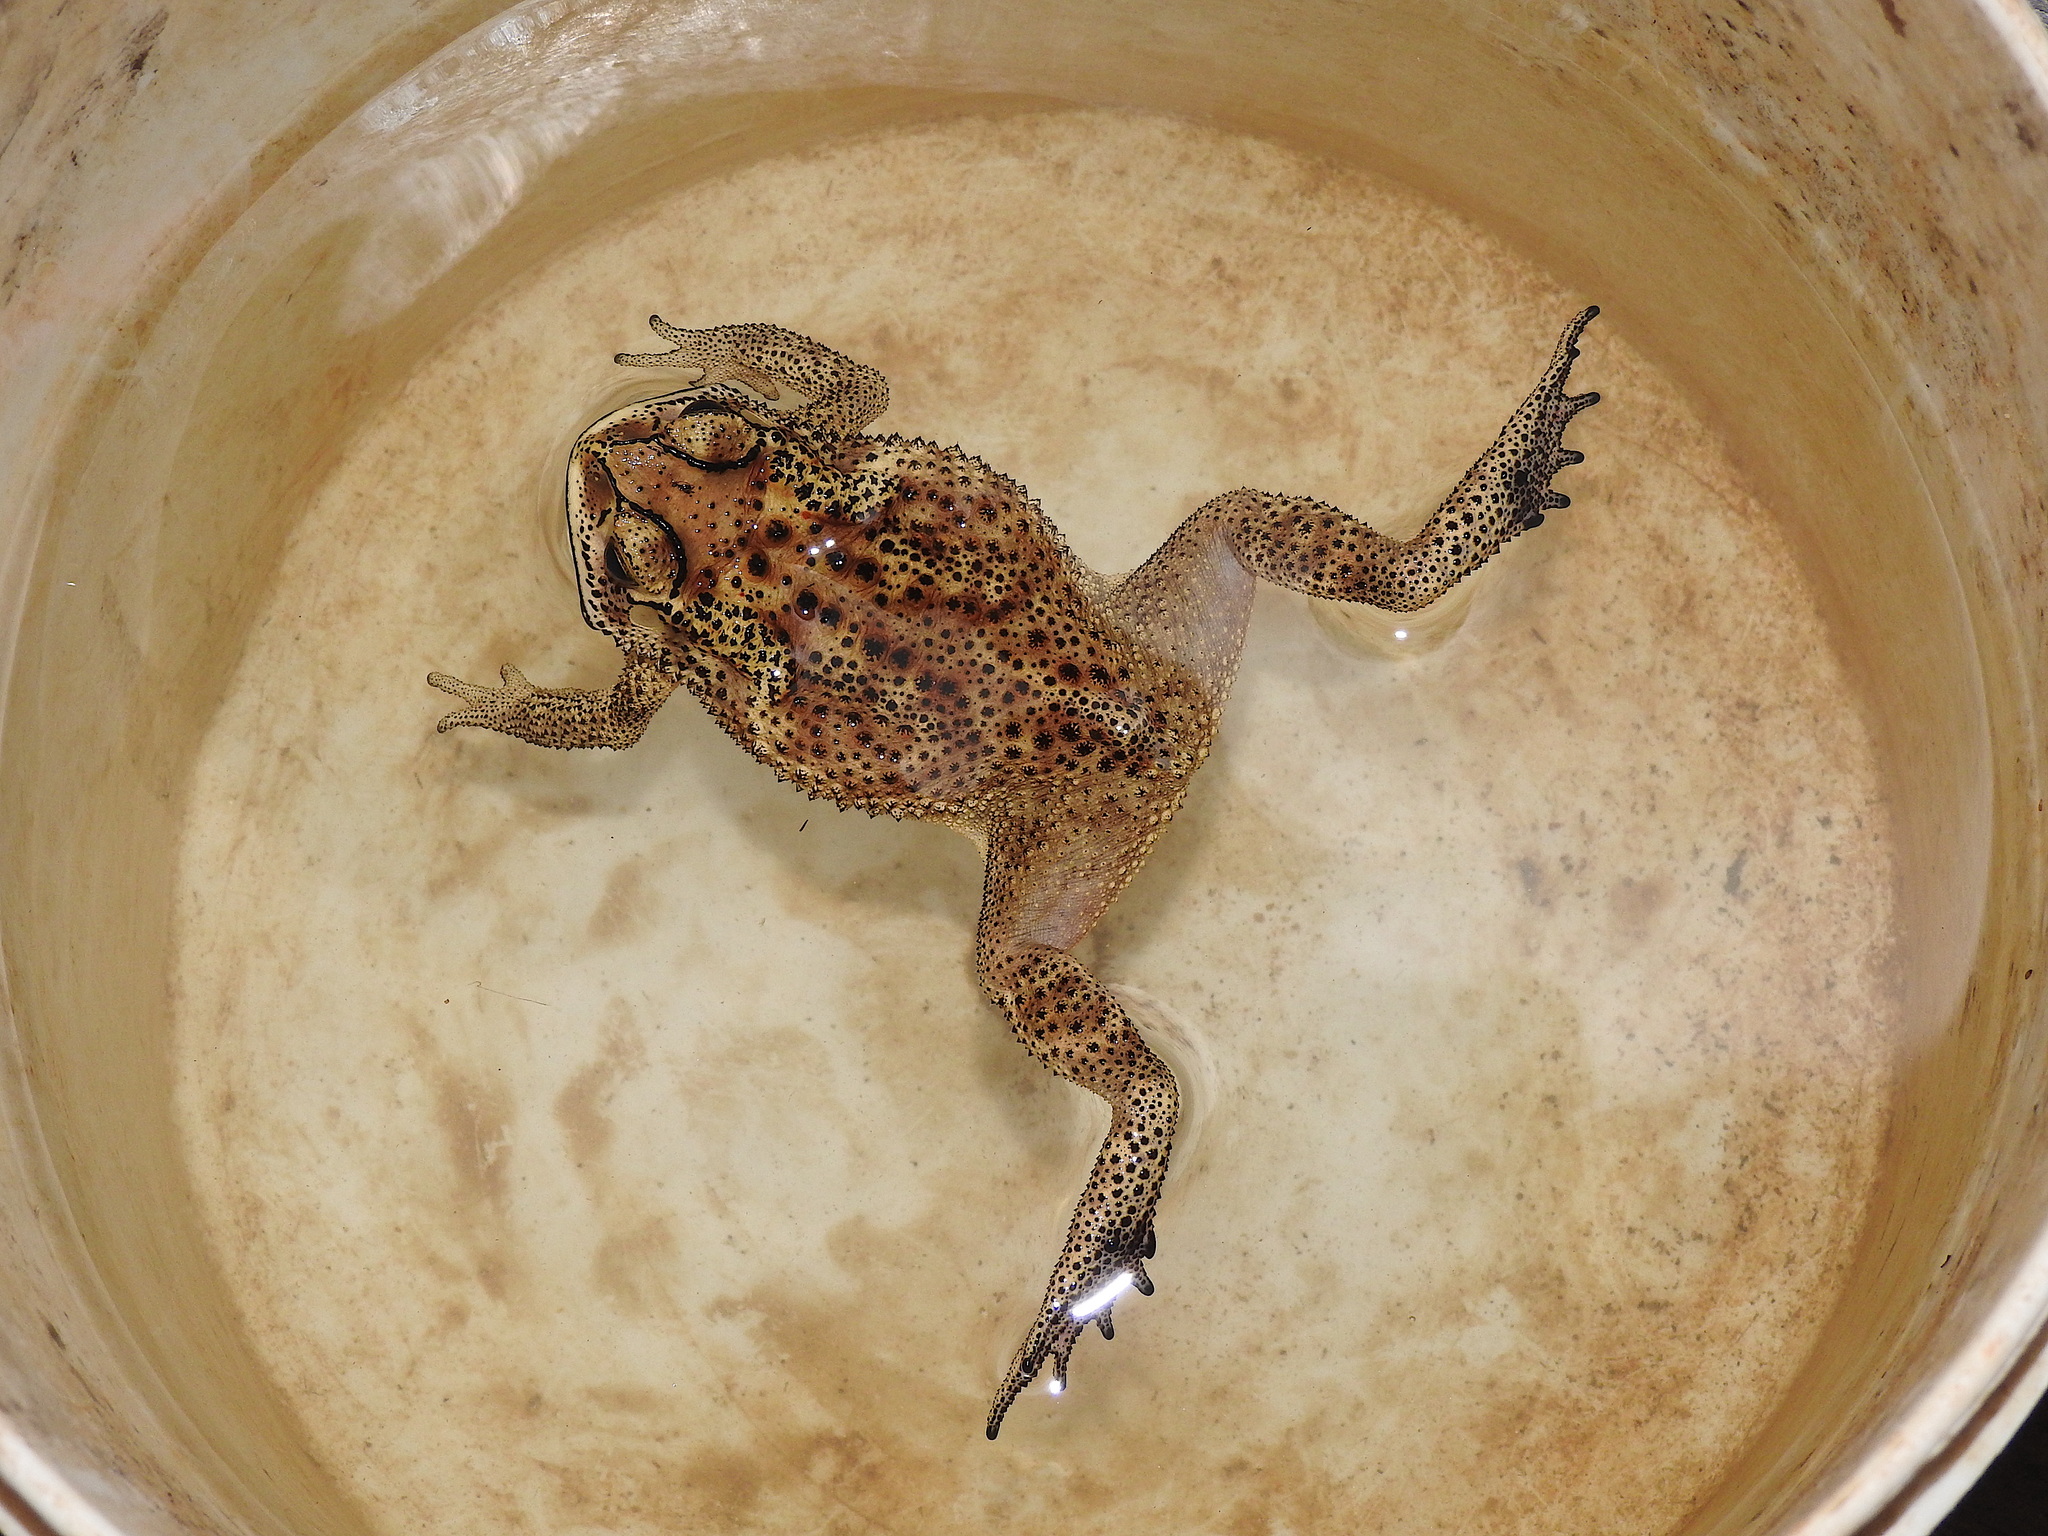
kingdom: Animalia
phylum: Chordata
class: Amphibia
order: Anura
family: Bufonidae
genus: Duttaphrynus
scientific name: Duttaphrynus melanostictus
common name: Common sunda toad
